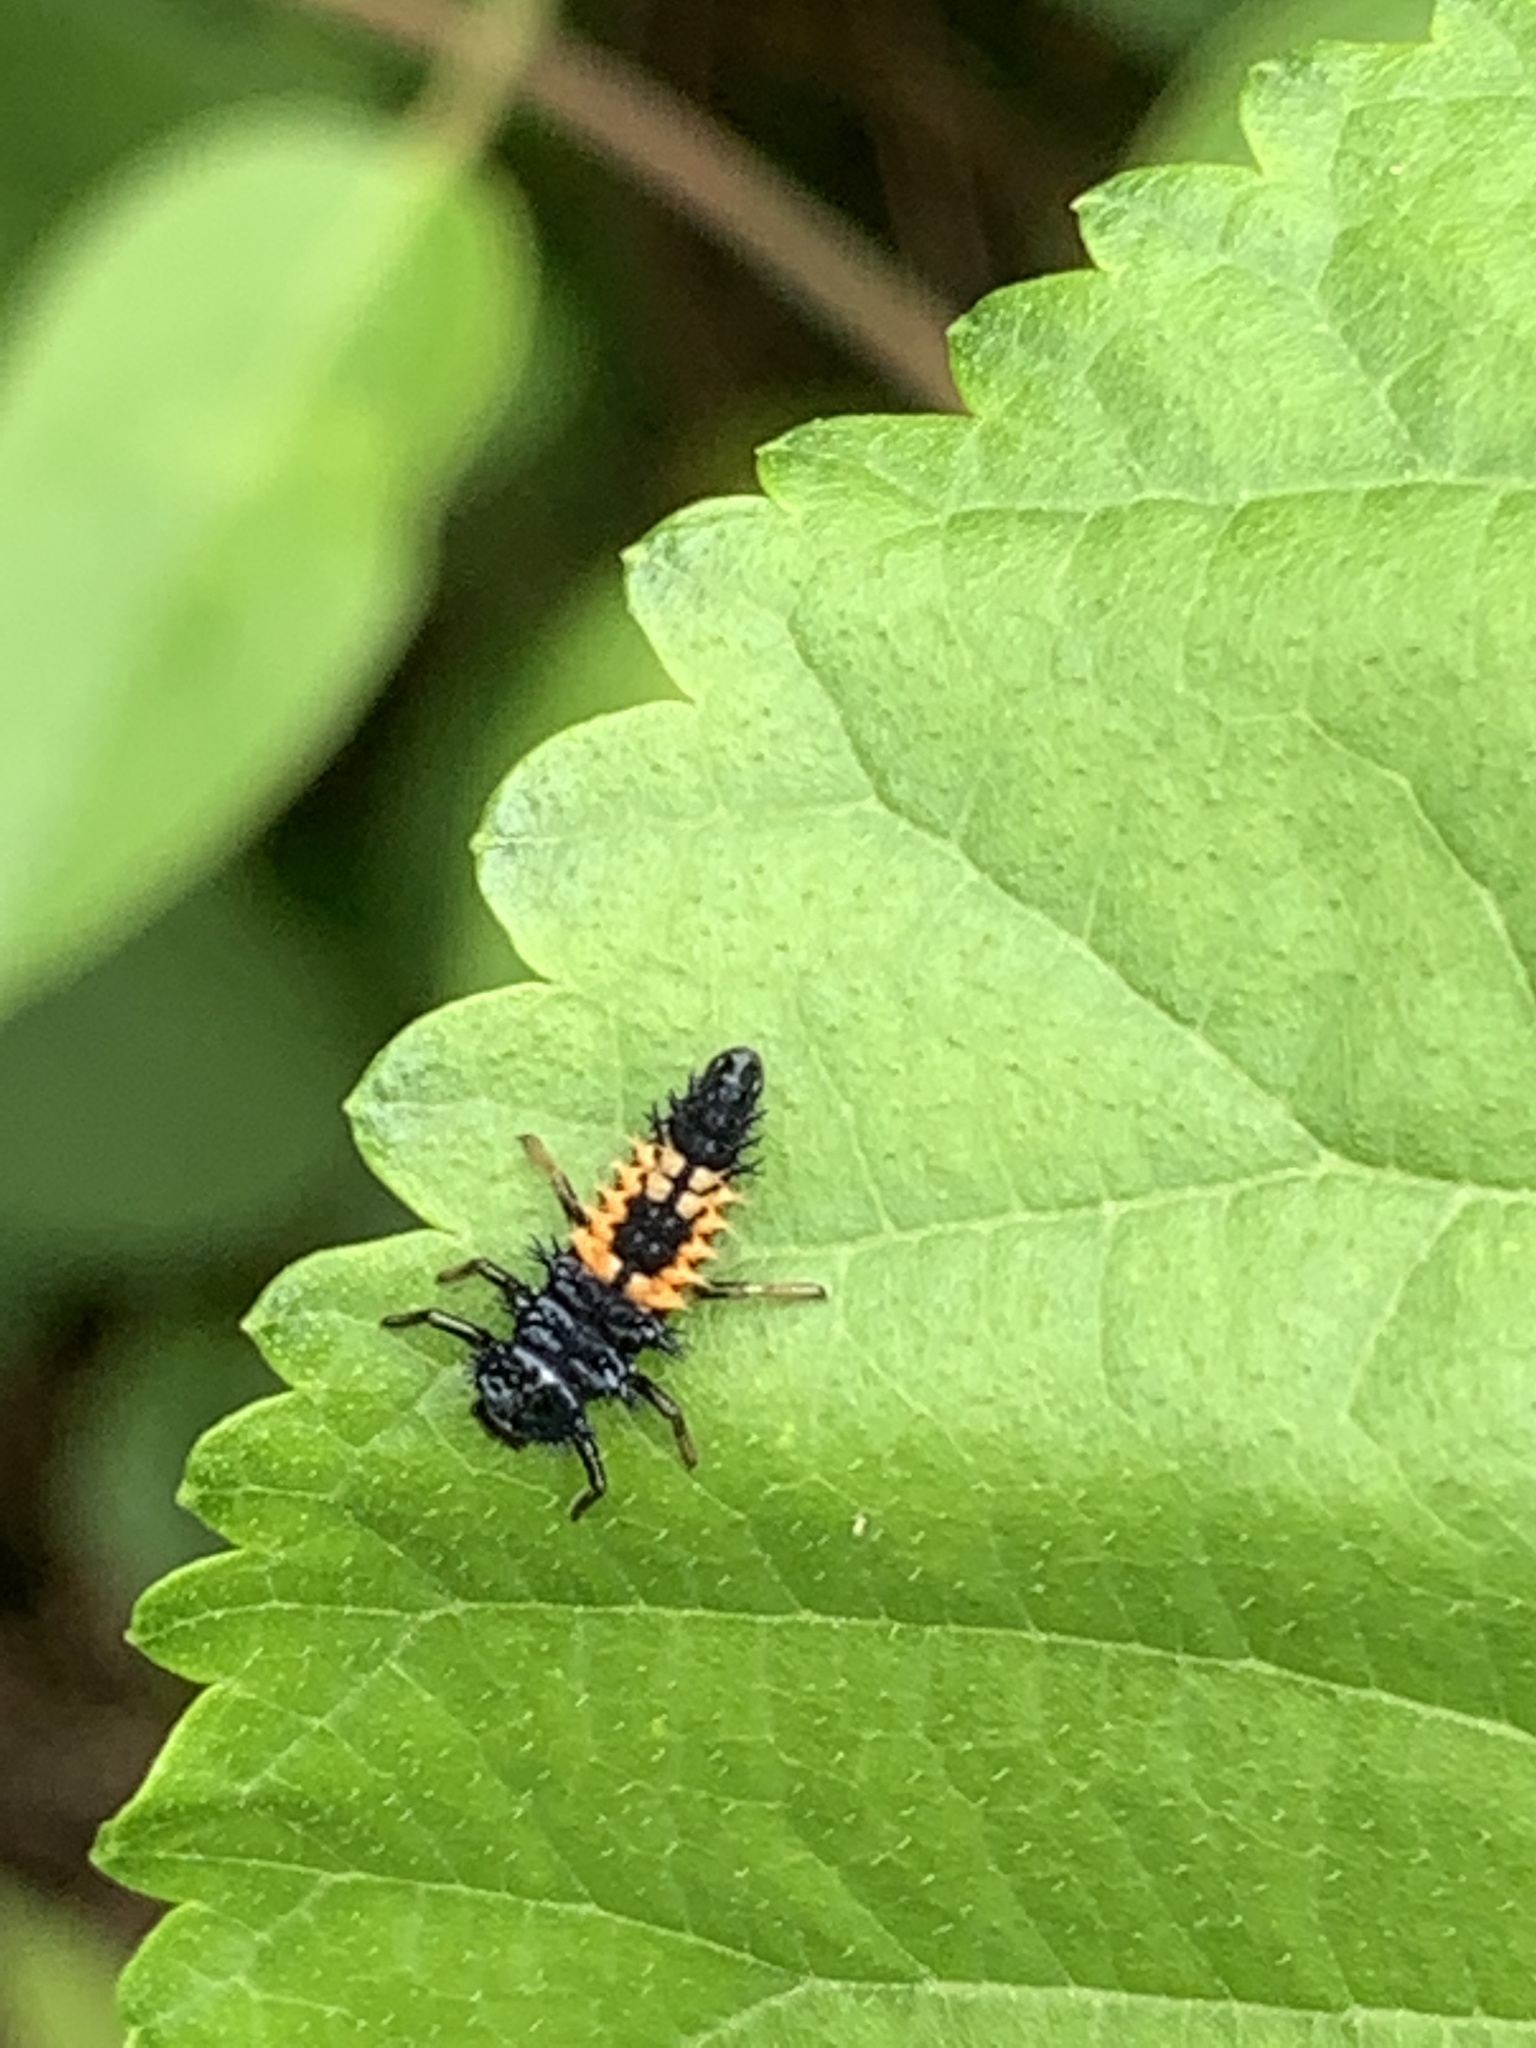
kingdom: Animalia
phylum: Arthropoda
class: Insecta
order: Coleoptera
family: Coccinellidae
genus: Harmonia
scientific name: Harmonia axyridis
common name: Harlequin ladybird
